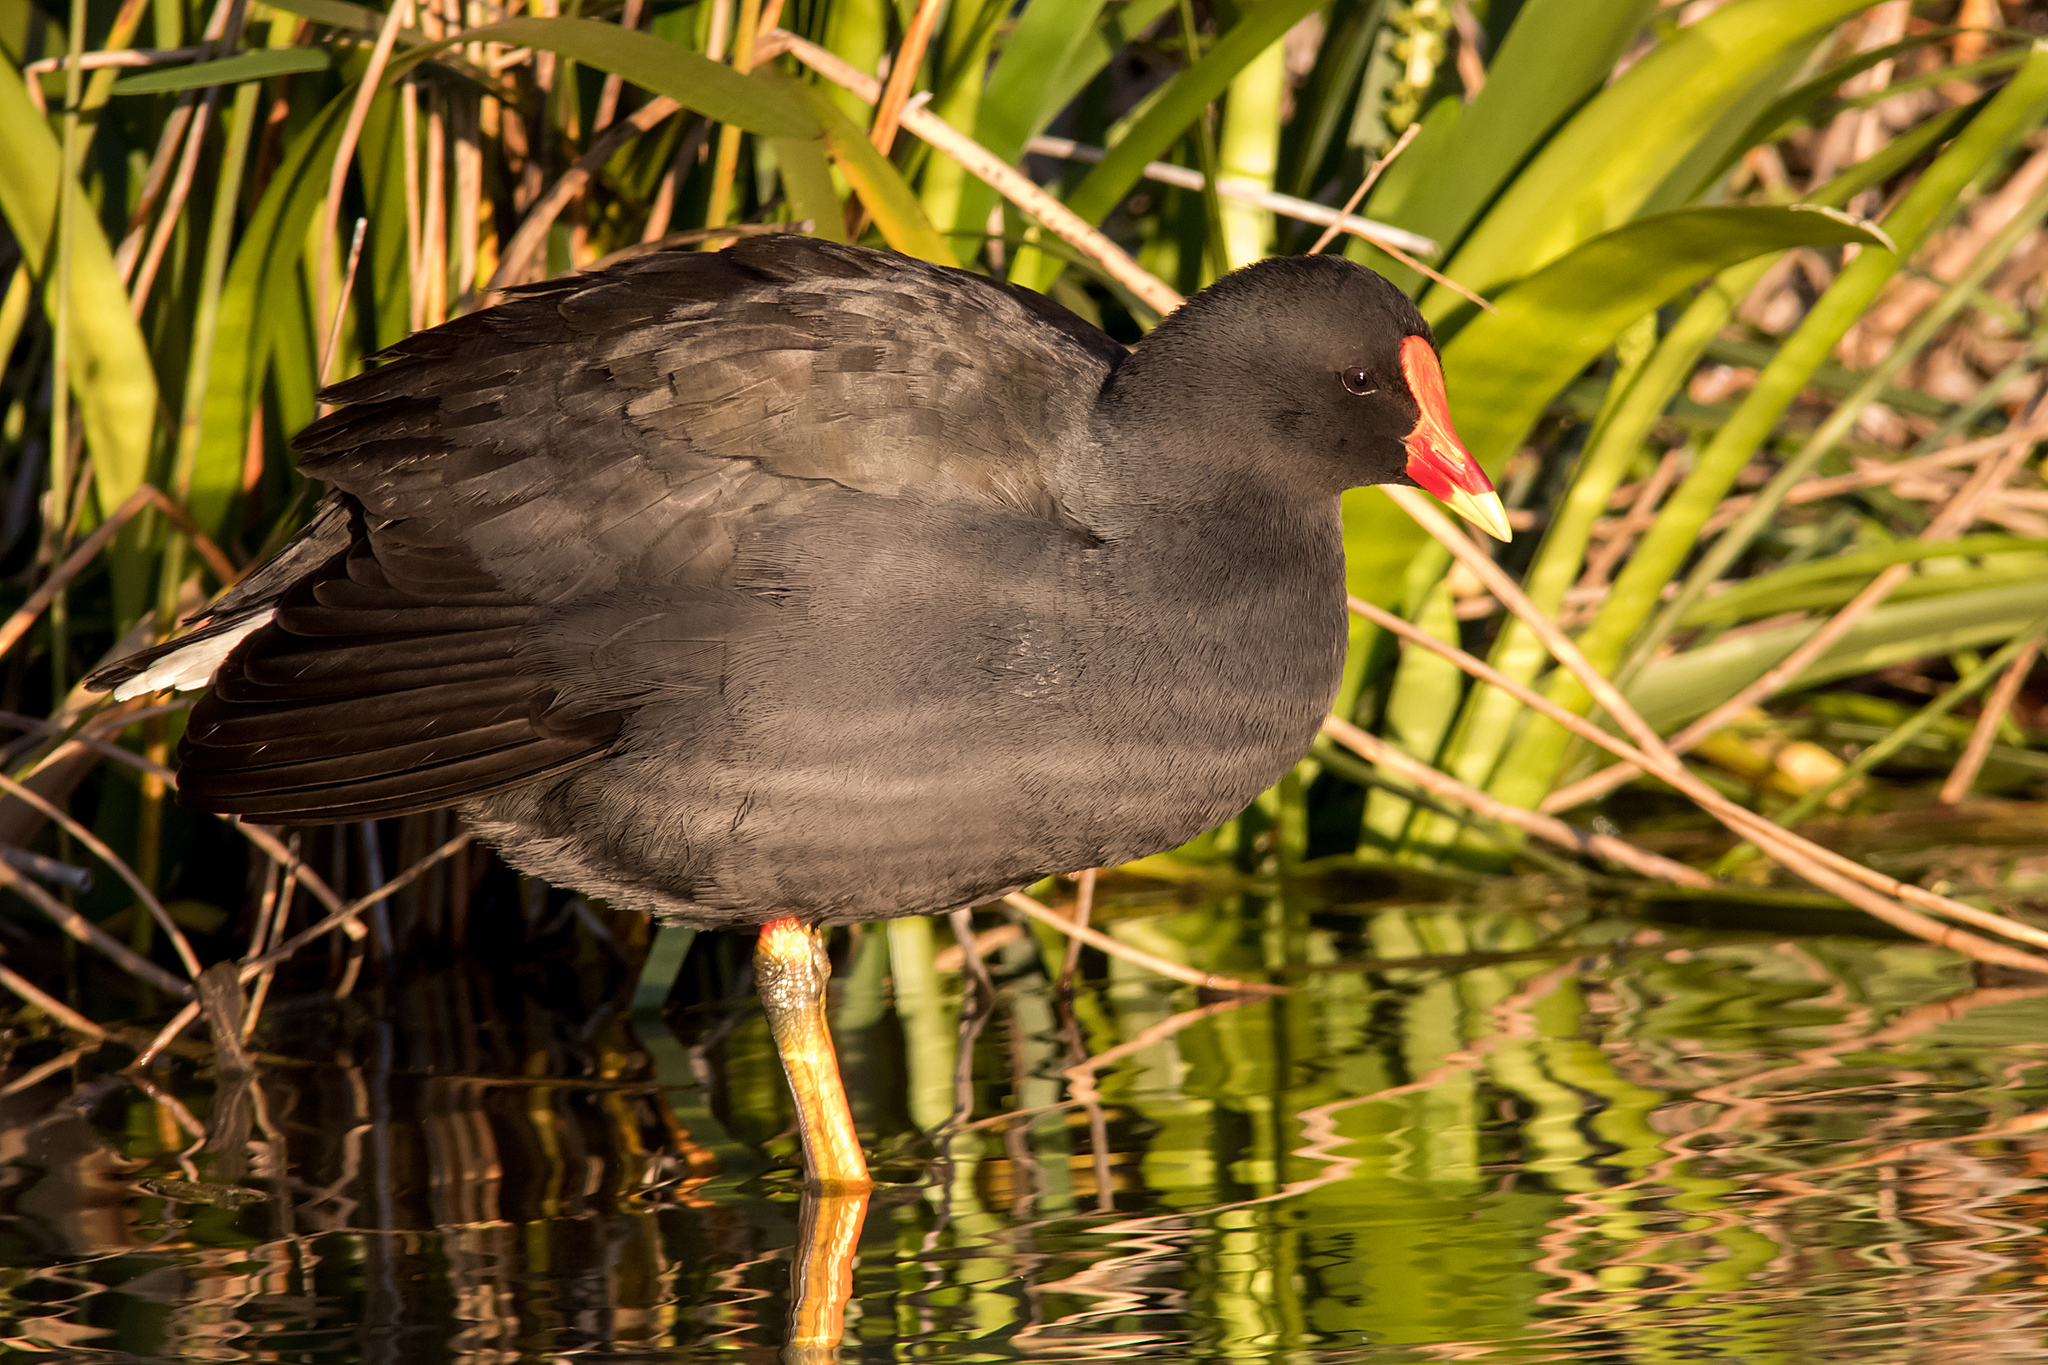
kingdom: Animalia
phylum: Chordata
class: Aves
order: Gruiformes
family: Rallidae
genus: Gallinula
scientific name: Gallinula tenebrosa
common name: Dusky moorhen
